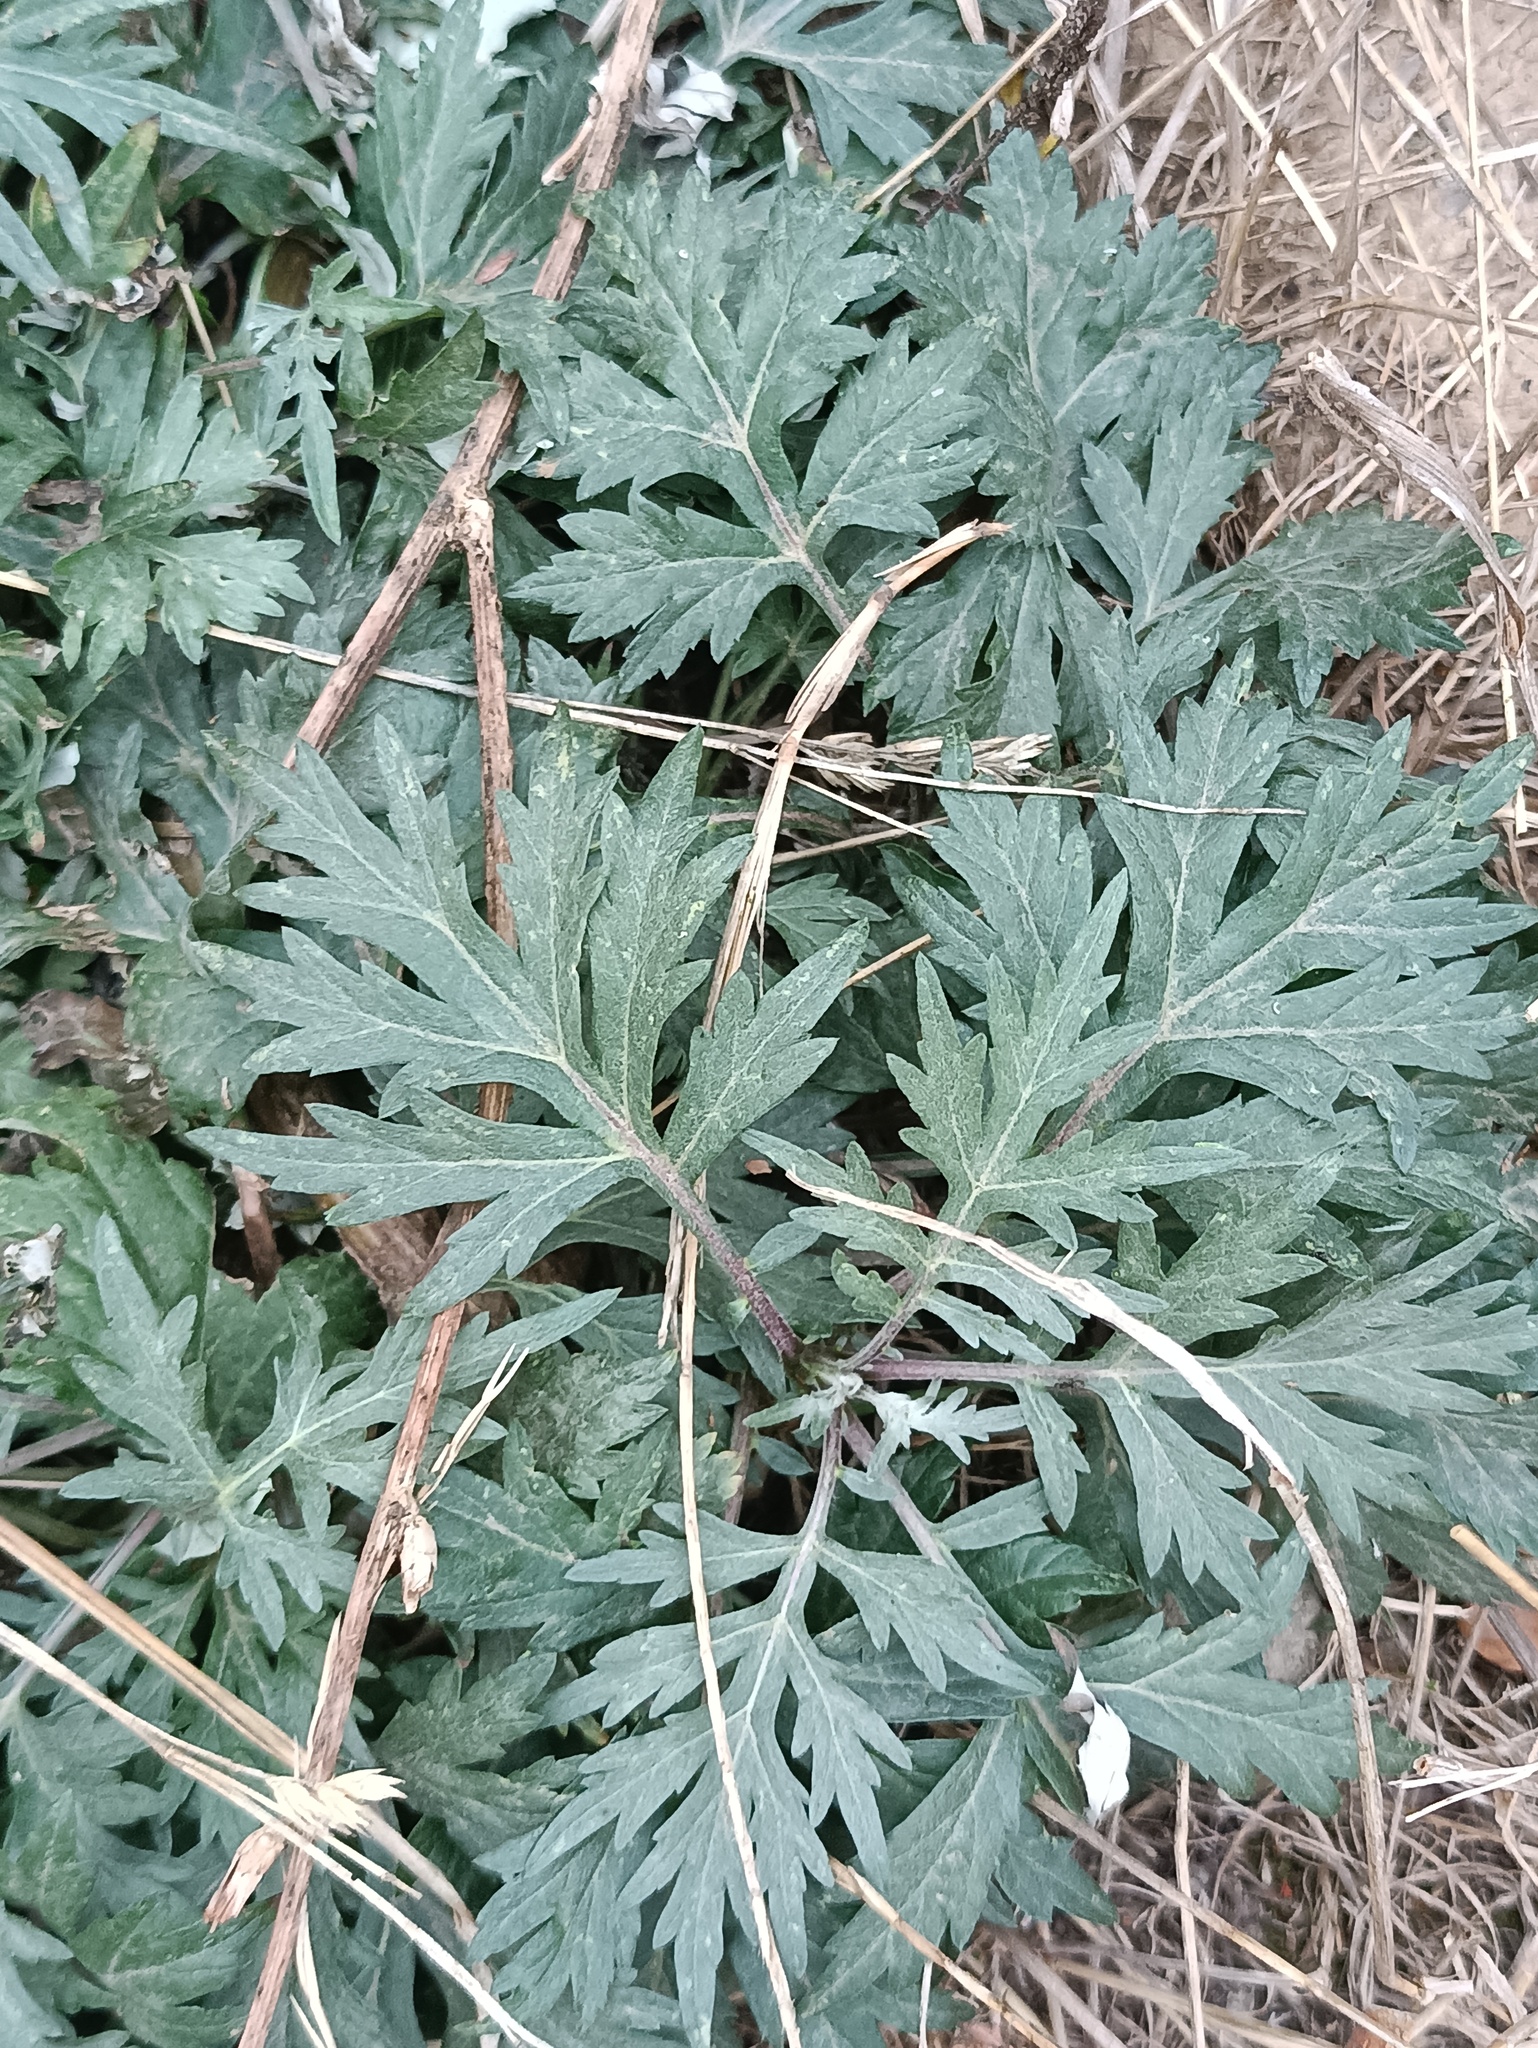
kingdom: Plantae
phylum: Tracheophyta
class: Magnoliopsida
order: Asterales
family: Asteraceae
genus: Artemisia
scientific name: Artemisia vulgaris
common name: Mugwort
